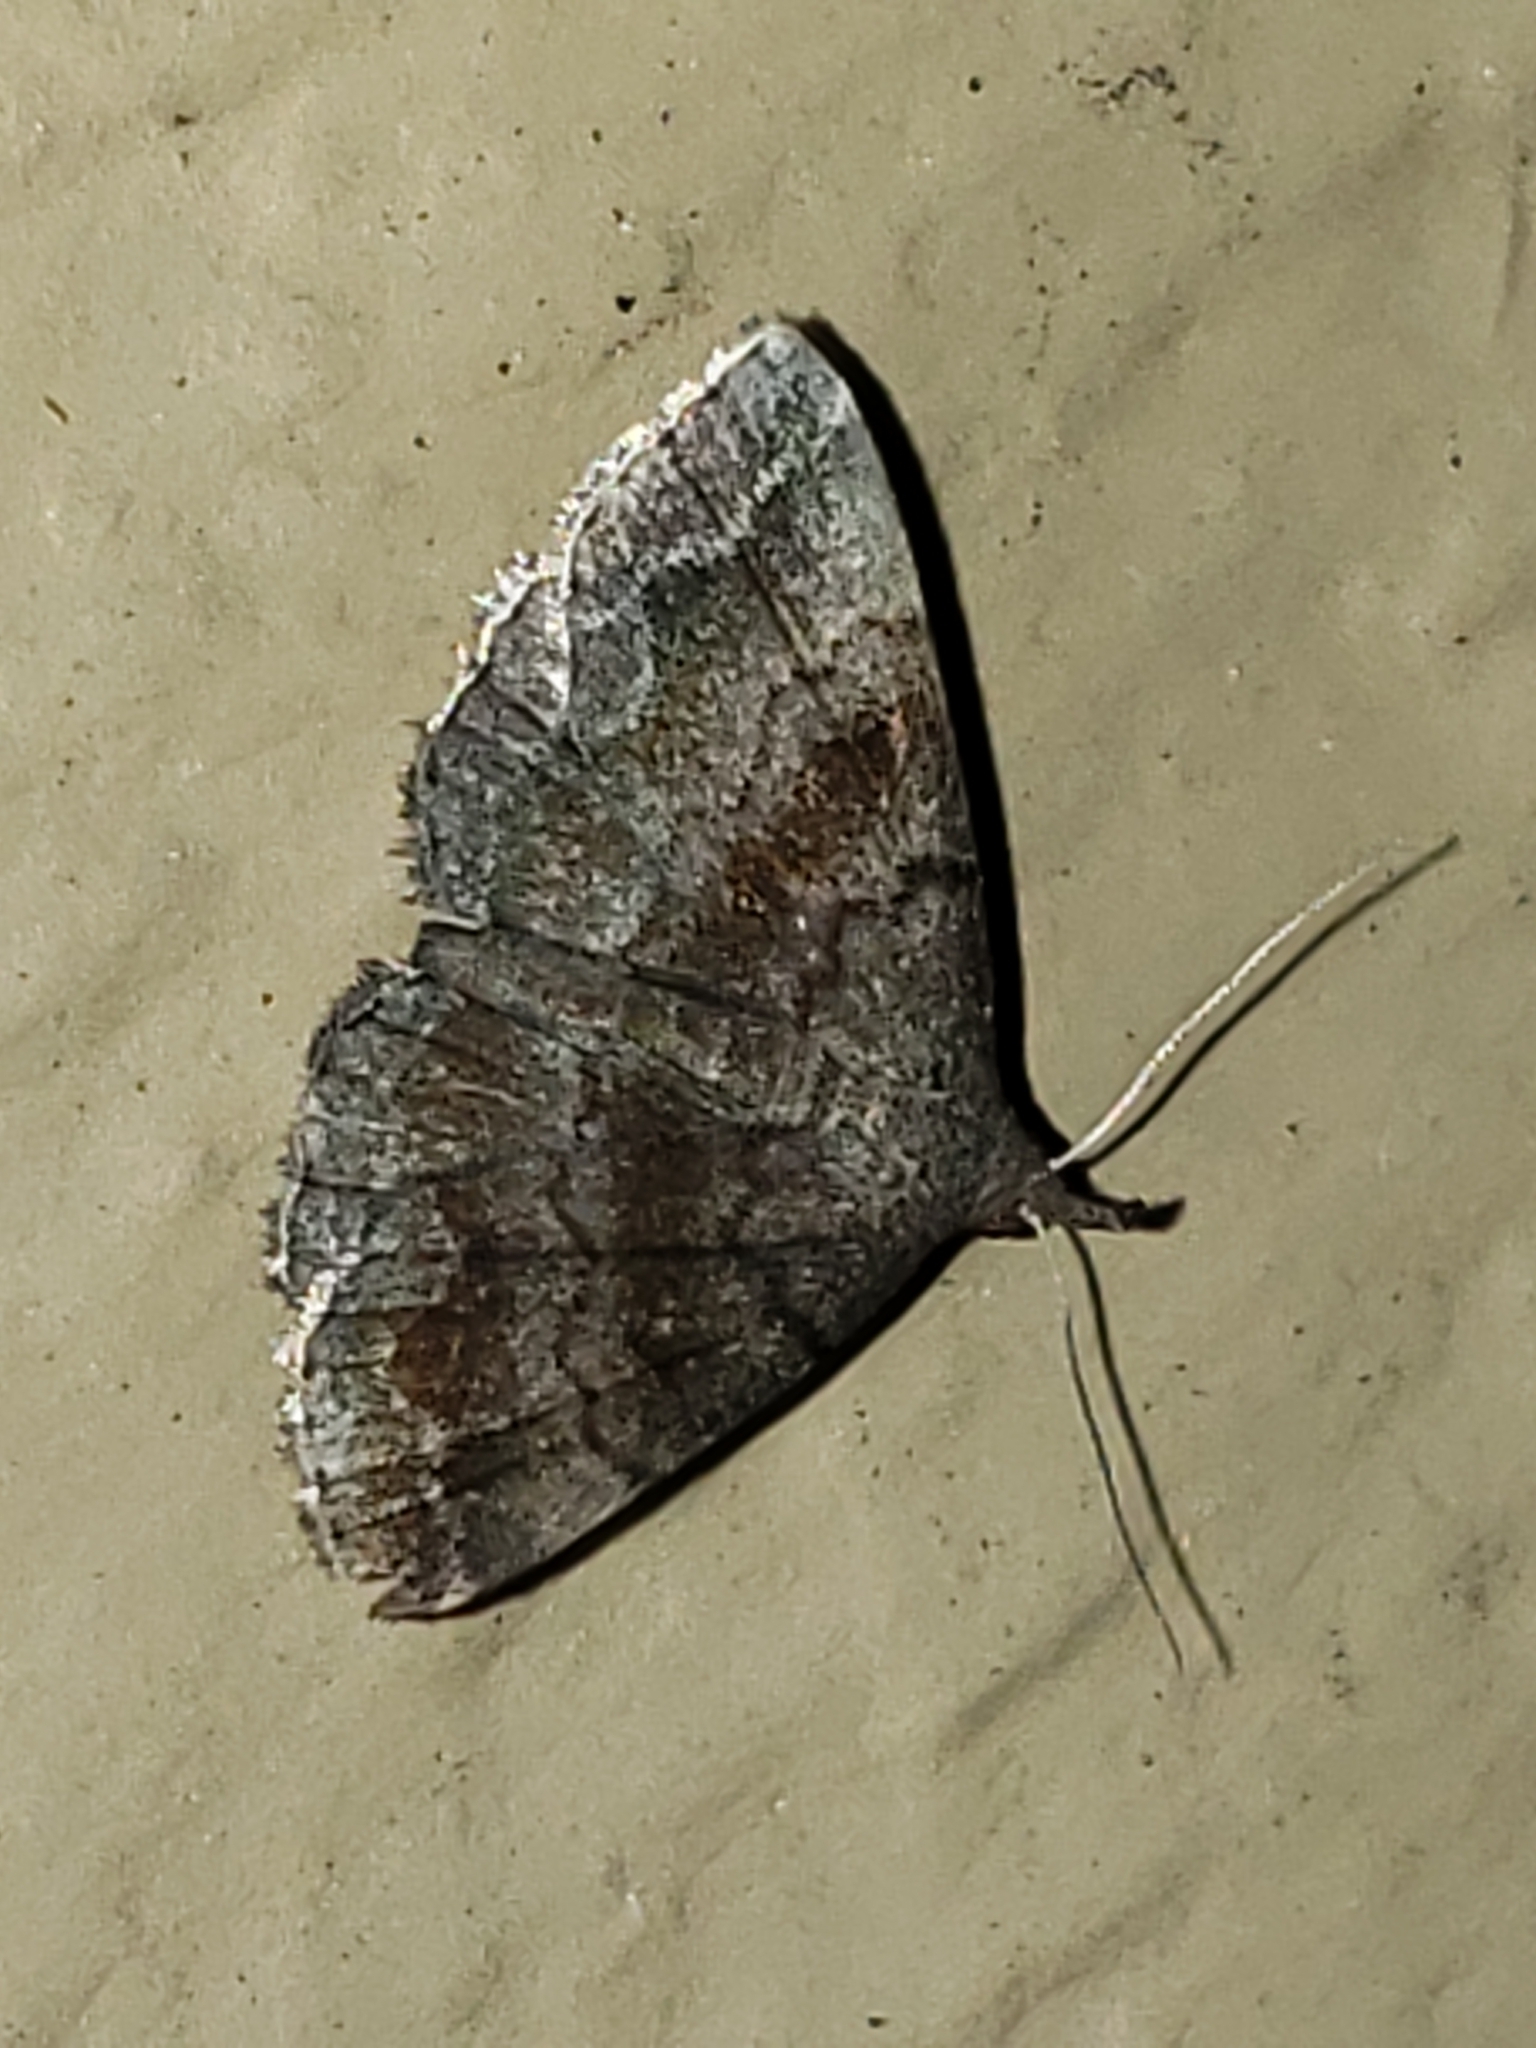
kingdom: Animalia
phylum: Arthropoda
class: Insecta
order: Lepidoptera
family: Erebidae
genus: Phalaenostola
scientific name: Phalaenostola larentioides
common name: Black-banded owlet
